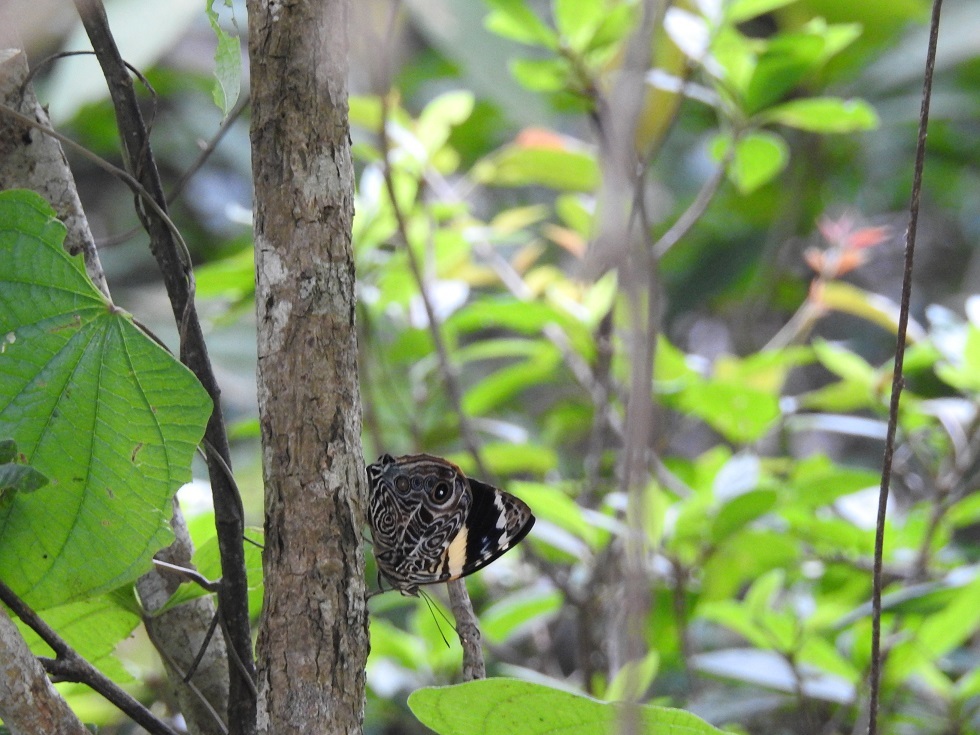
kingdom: Animalia
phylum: Arthropoda
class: Insecta
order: Lepidoptera
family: Nymphalidae
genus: Smyrna
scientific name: Smyrna blomfildia
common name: Blomfild's beauty
